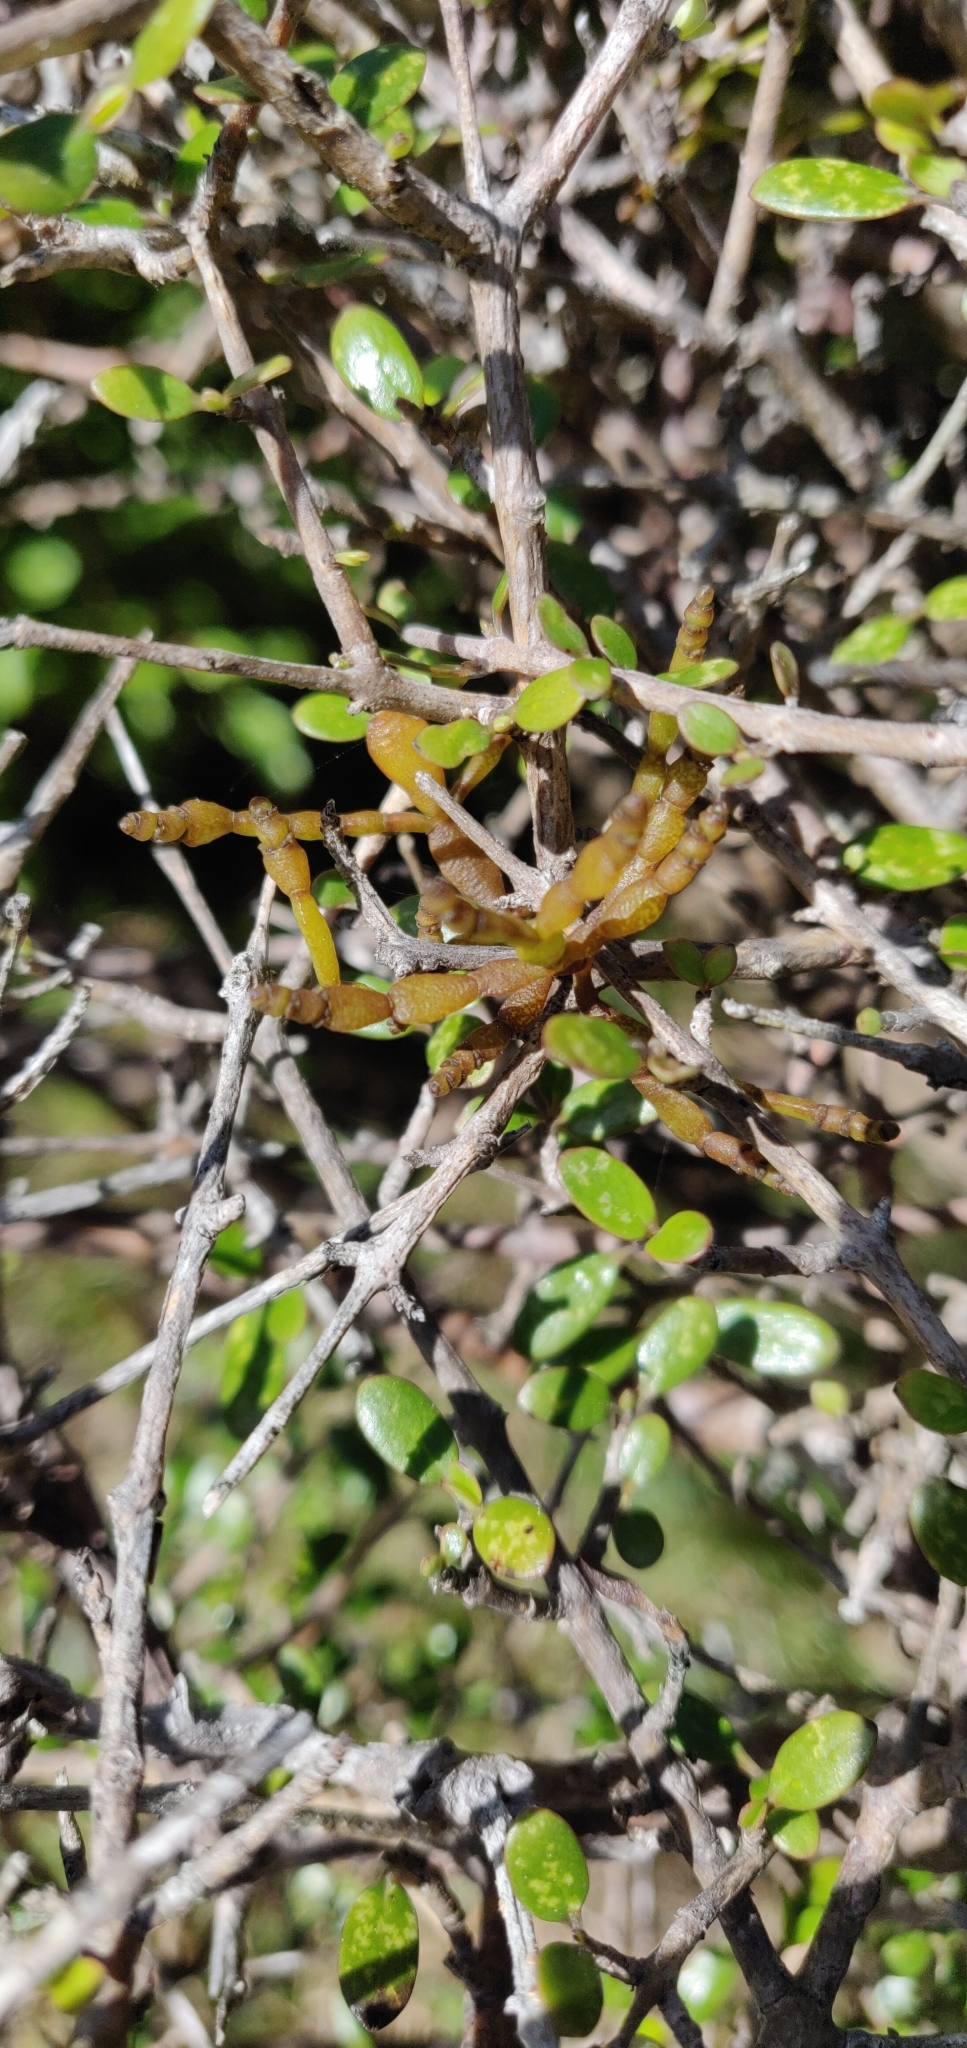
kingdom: Plantae
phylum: Tracheophyta
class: Magnoliopsida
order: Santalales
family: Viscaceae
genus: Korthalsella
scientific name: Korthalsella clavata
